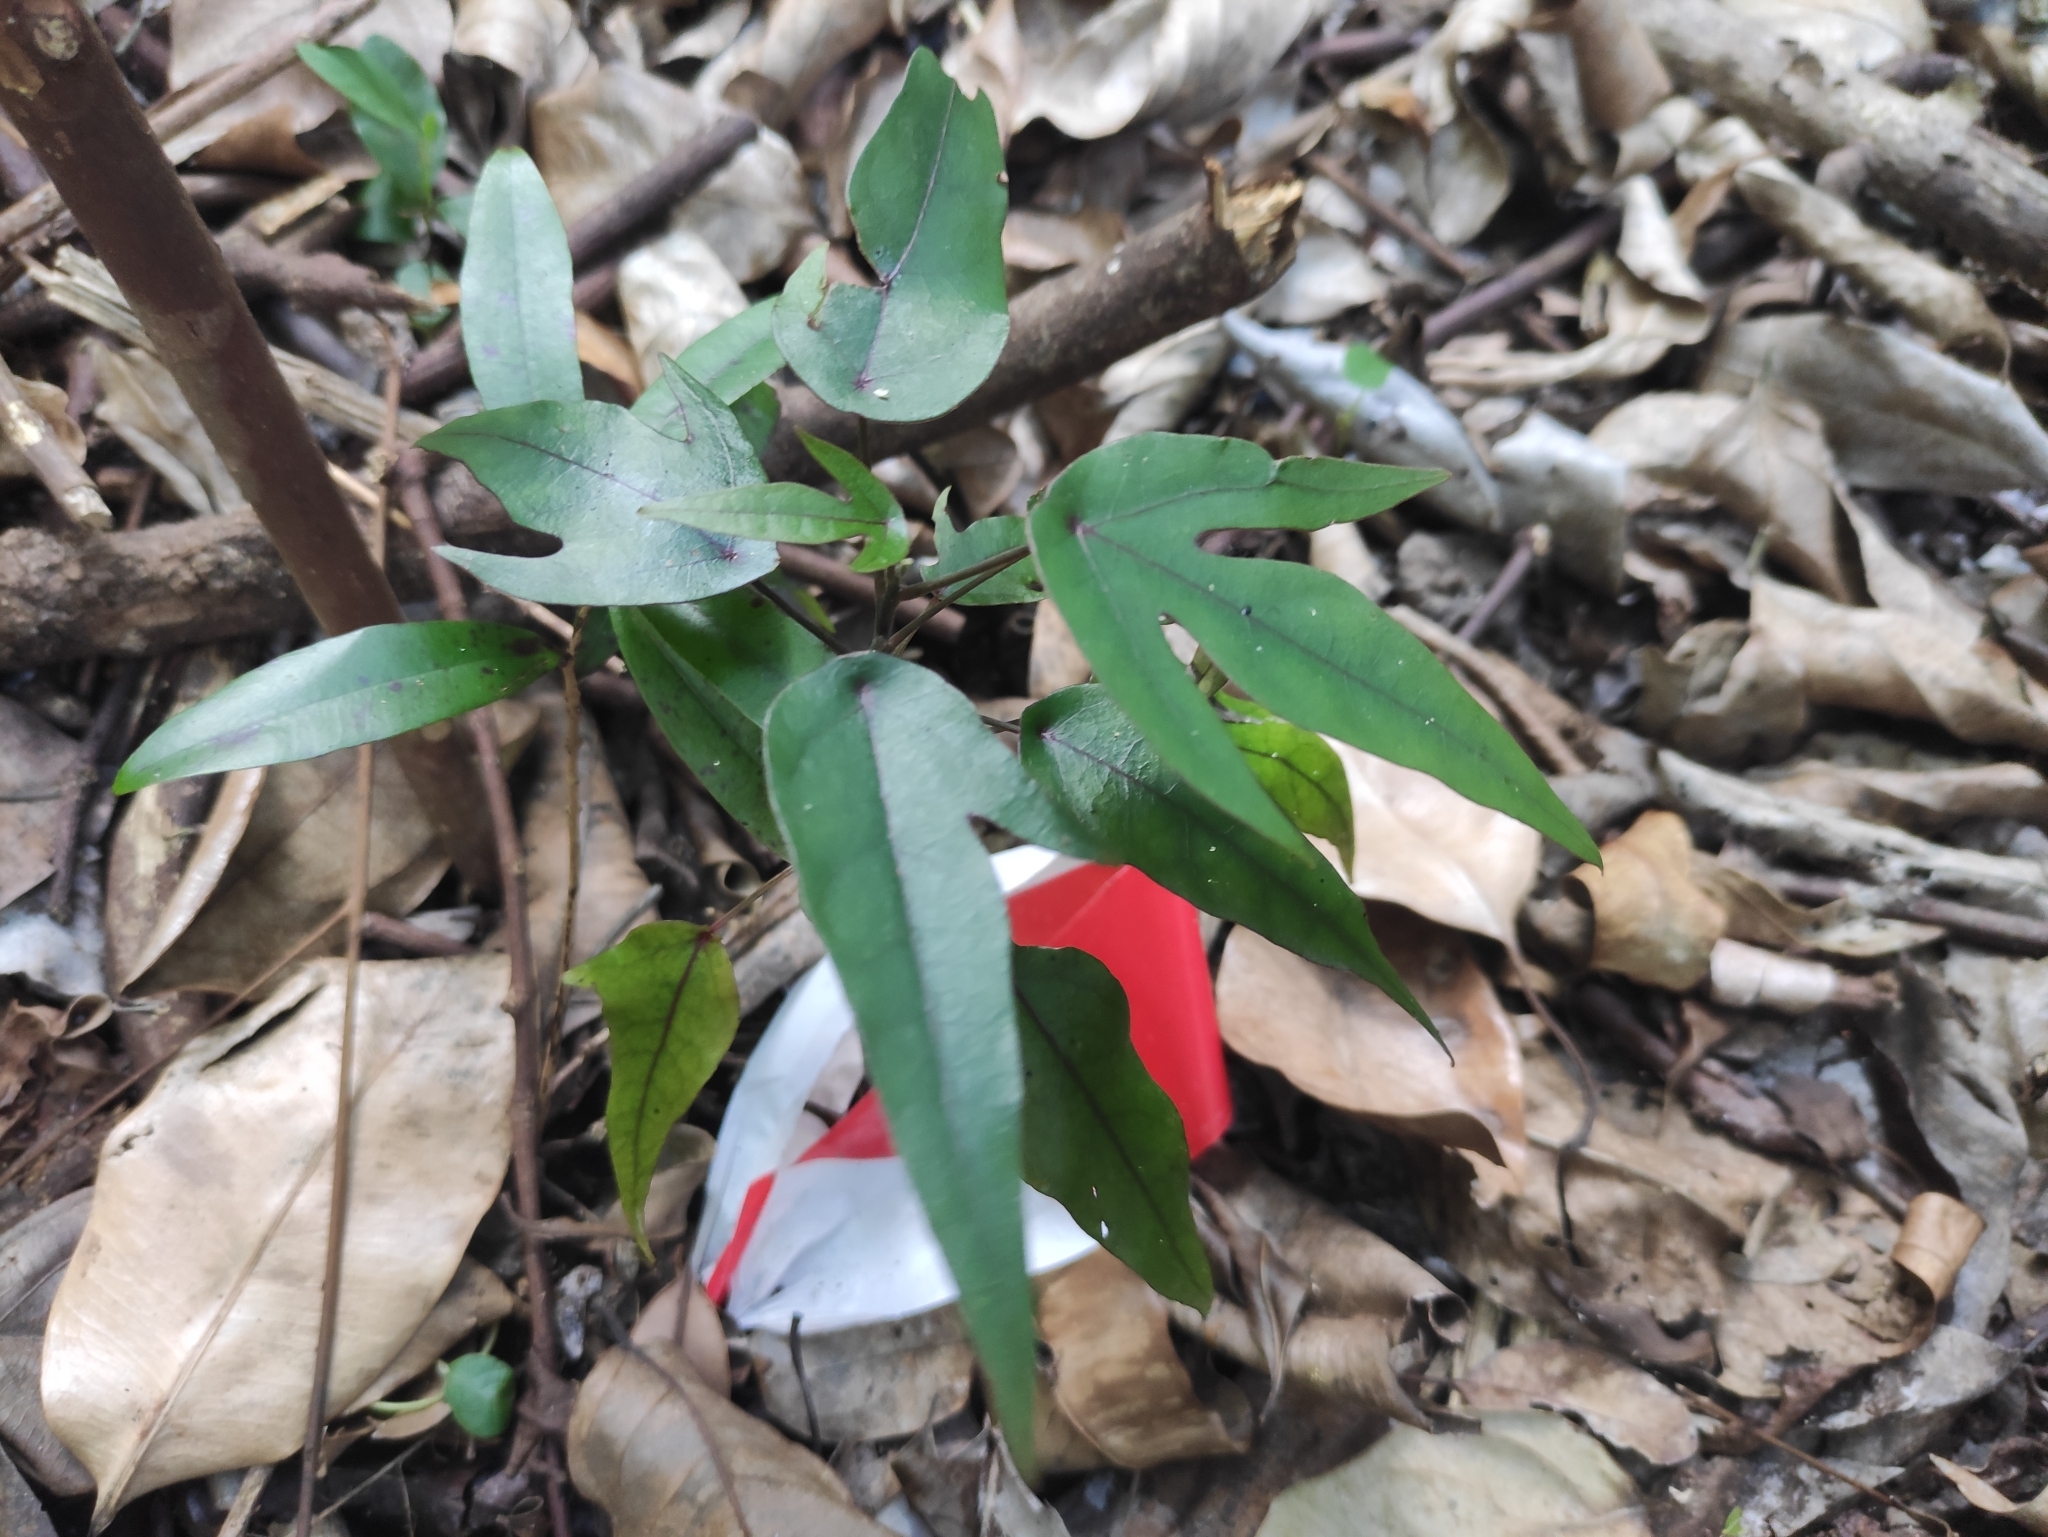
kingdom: Plantae
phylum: Tracheophyta
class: Magnoliopsida
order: Laurales
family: Hernandiaceae
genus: Hernandia
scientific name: Hernandia mascarenensis
